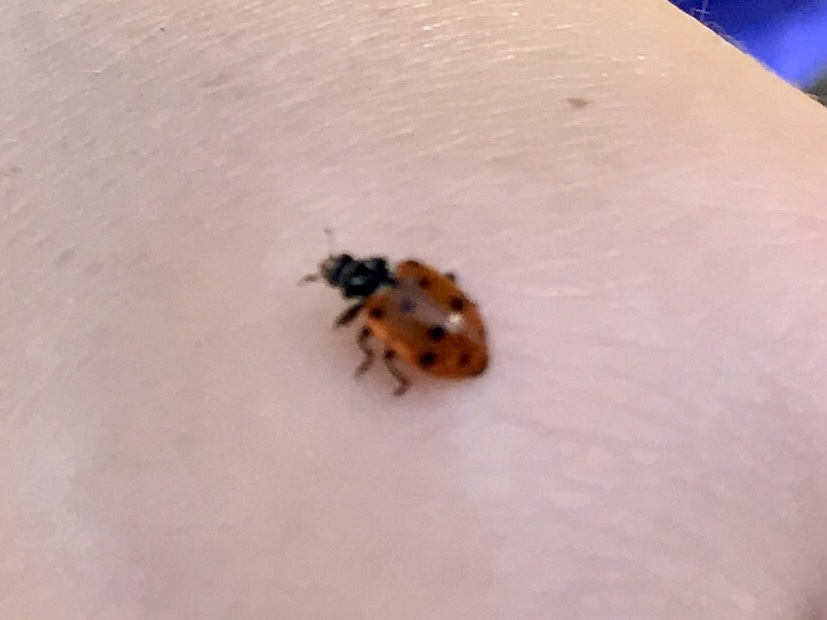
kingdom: Animalia
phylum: Arthropoda
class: Insecta
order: Coleoptera
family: Coccinellidae
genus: Hippodamia
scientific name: Hippodamia convergens
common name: Convergent lady beetle
